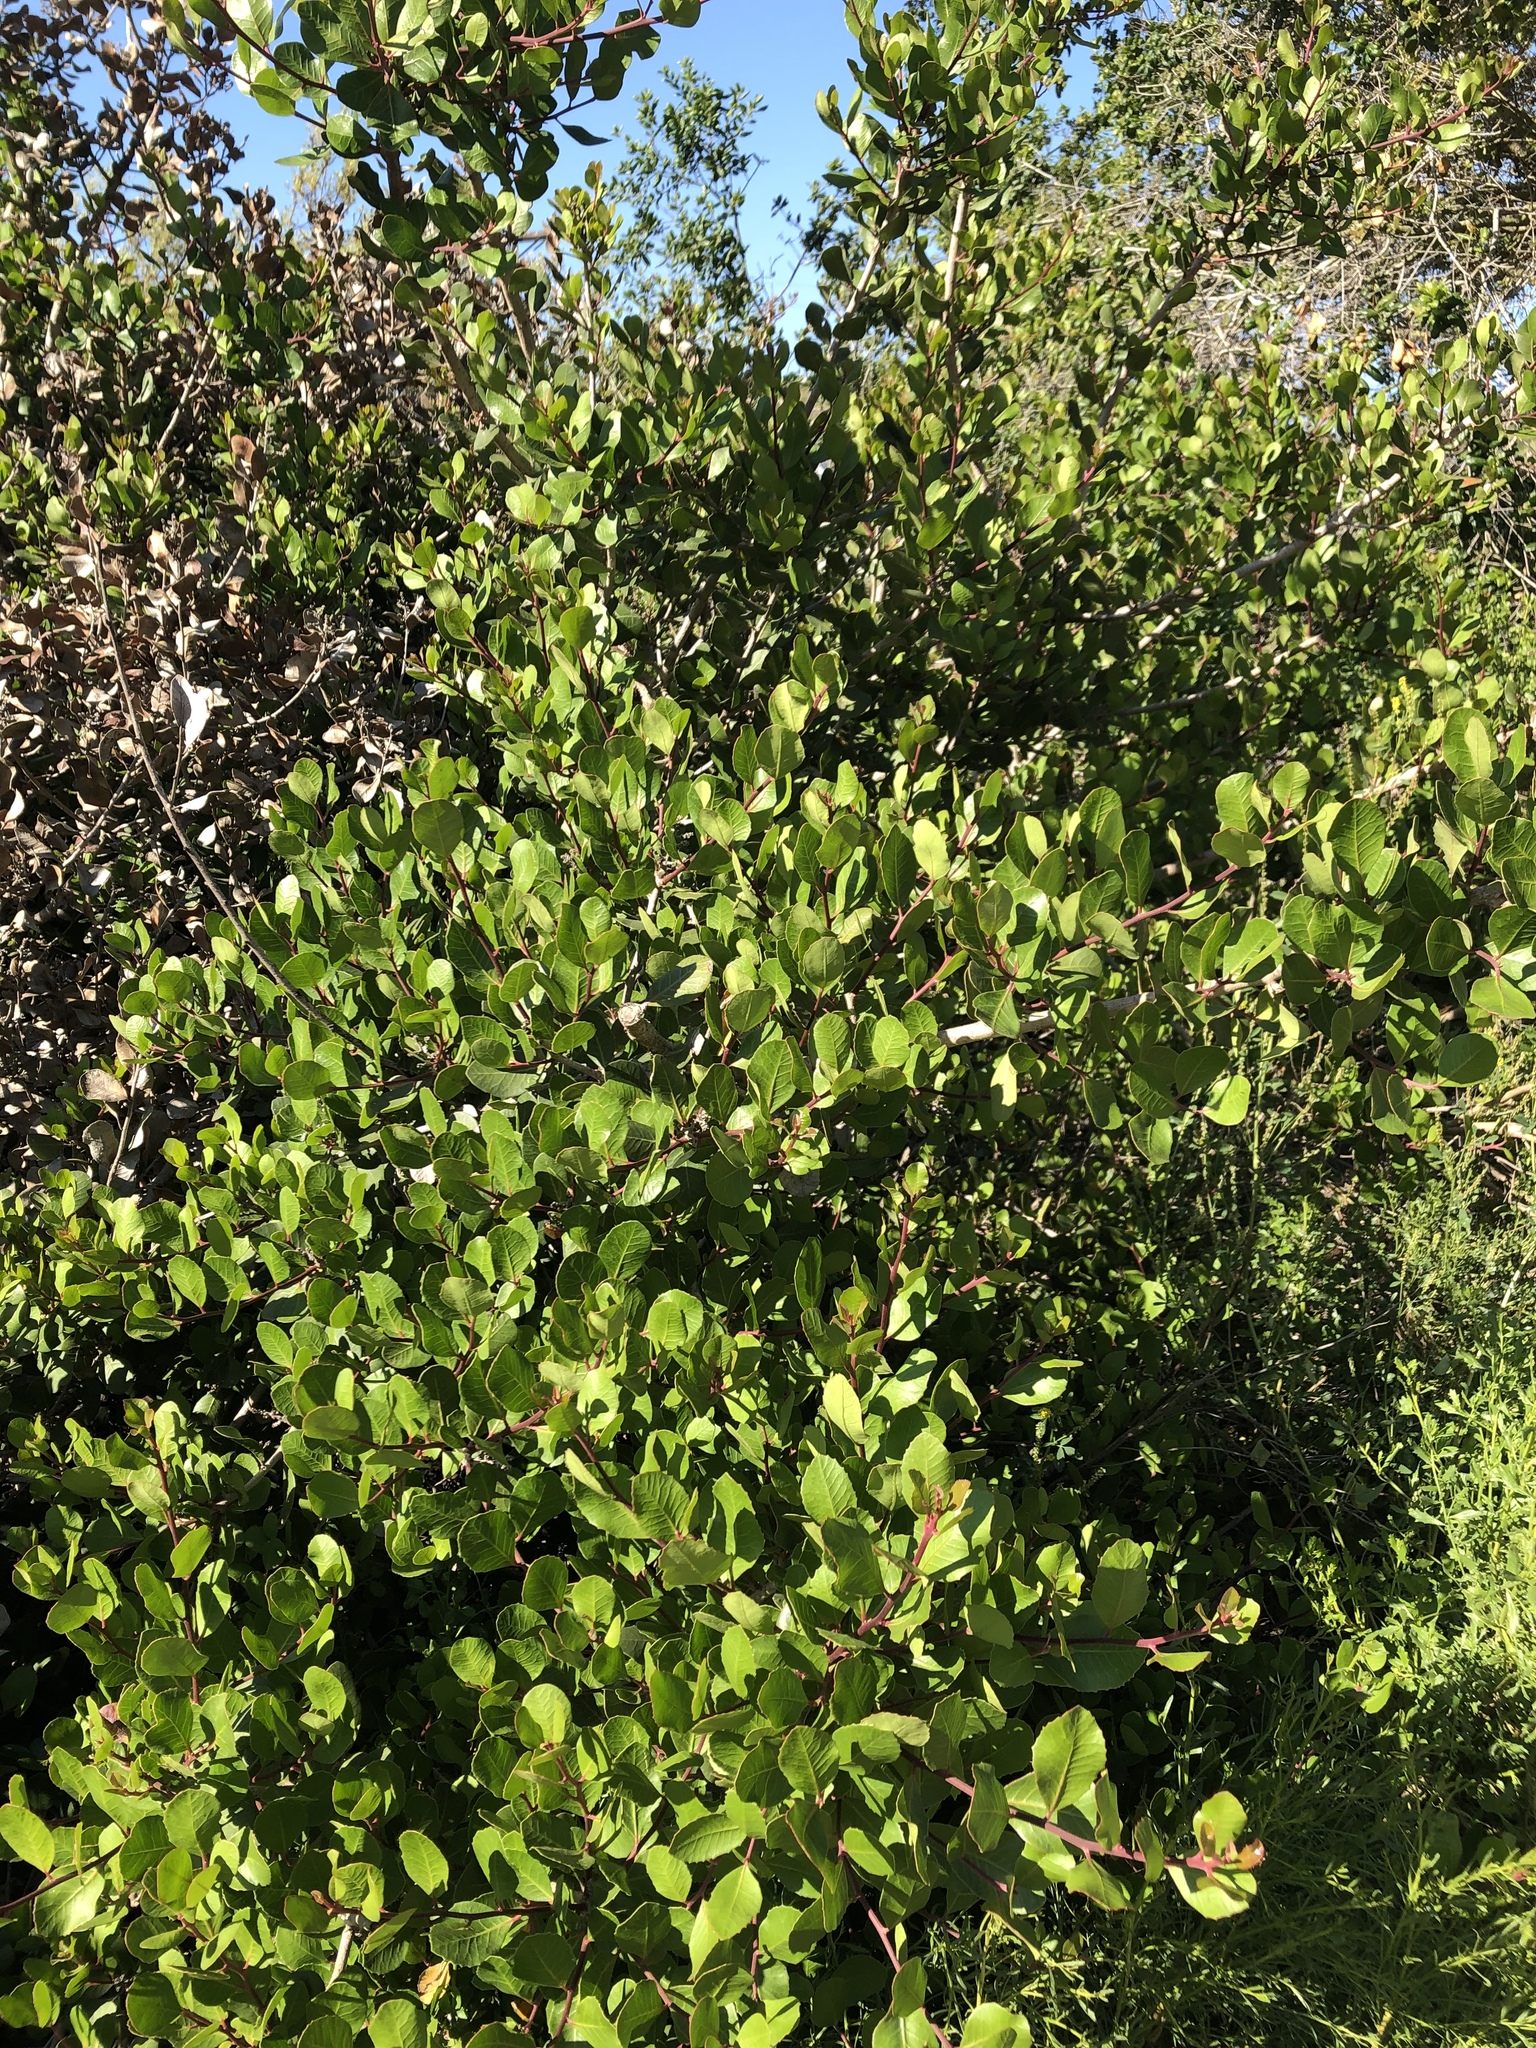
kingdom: Plantae
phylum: Tracheophyta
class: Magnoliopsida
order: Sapindales
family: Anacardiaceae
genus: Rhus
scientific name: Rhus integrifolia
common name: Lemonade sumac
